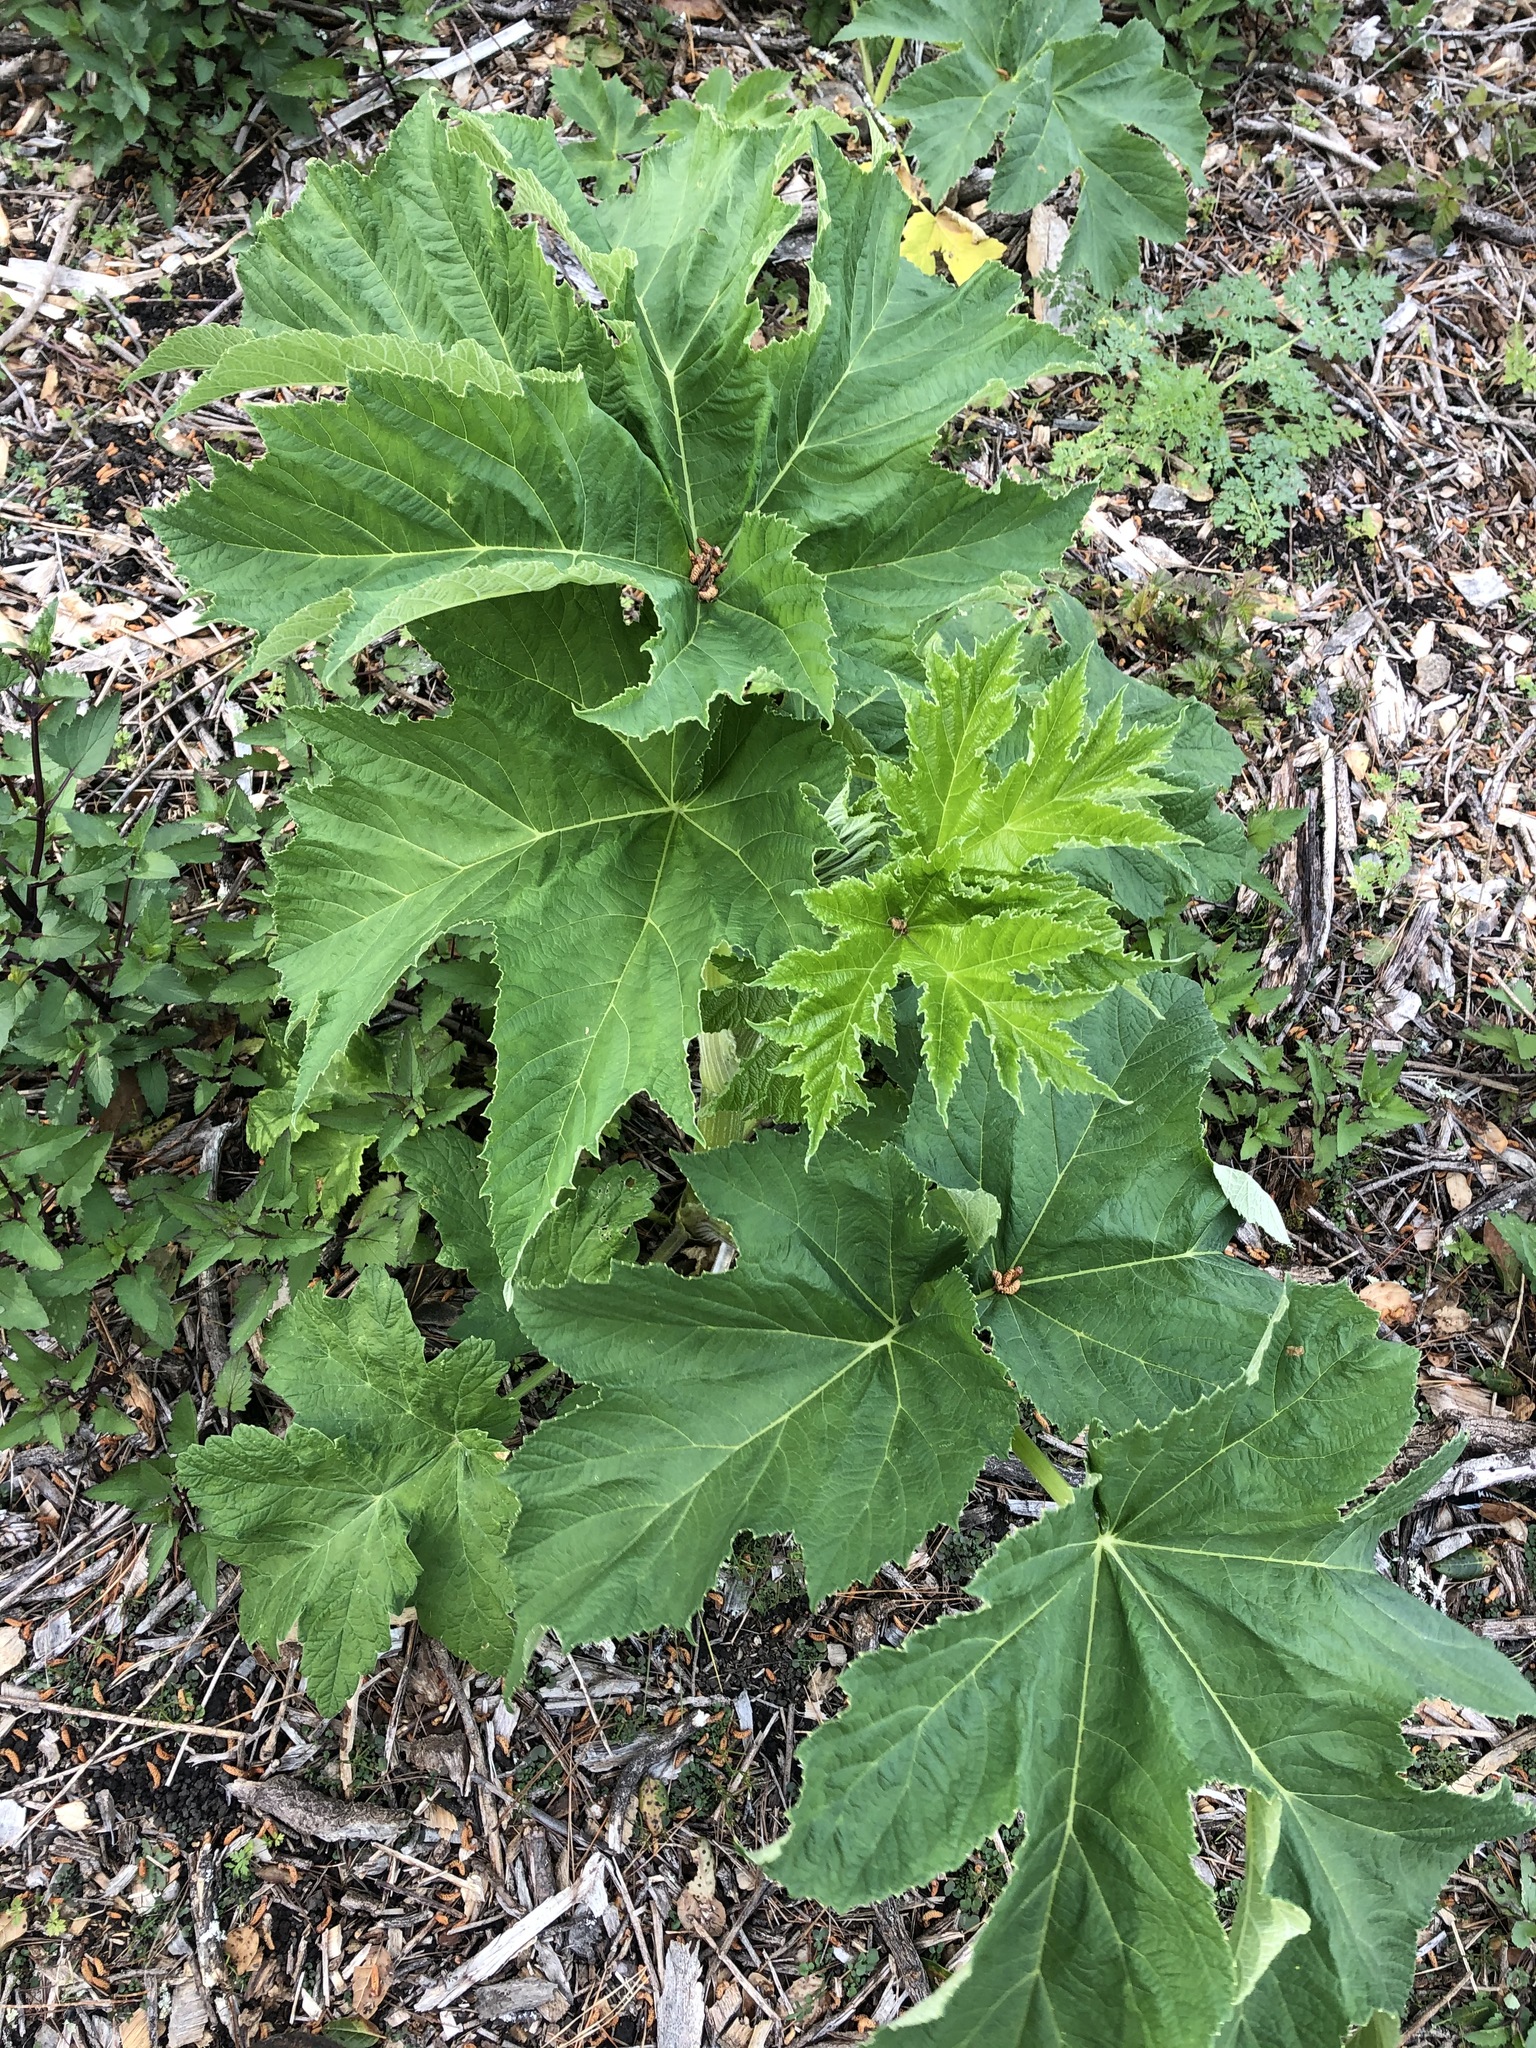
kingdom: Plantae
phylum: Tracheophyta
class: Magnoliopsida
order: Apiales
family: Apiaceae
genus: Heracleum
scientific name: Heracleum maximum
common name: American cow parsnip
